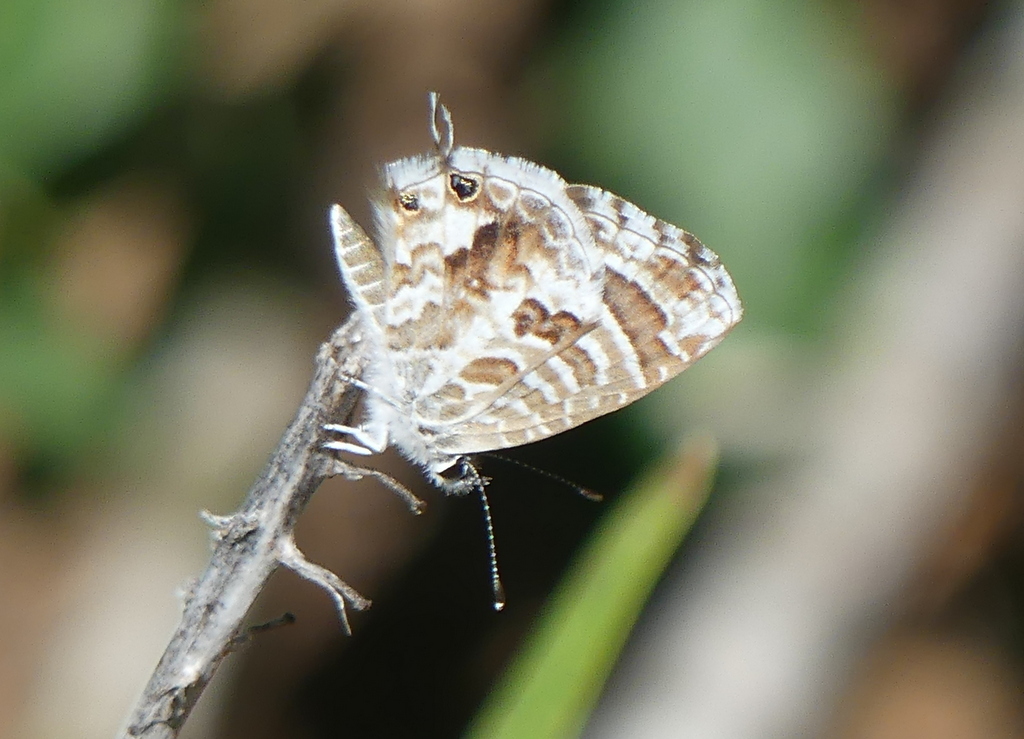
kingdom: Animalia
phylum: Arthropoda
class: Insecta
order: Lepidoptera
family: Lycaenidae
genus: Cacyreus
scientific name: Cacyreus marshalli
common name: Geranium bronze
